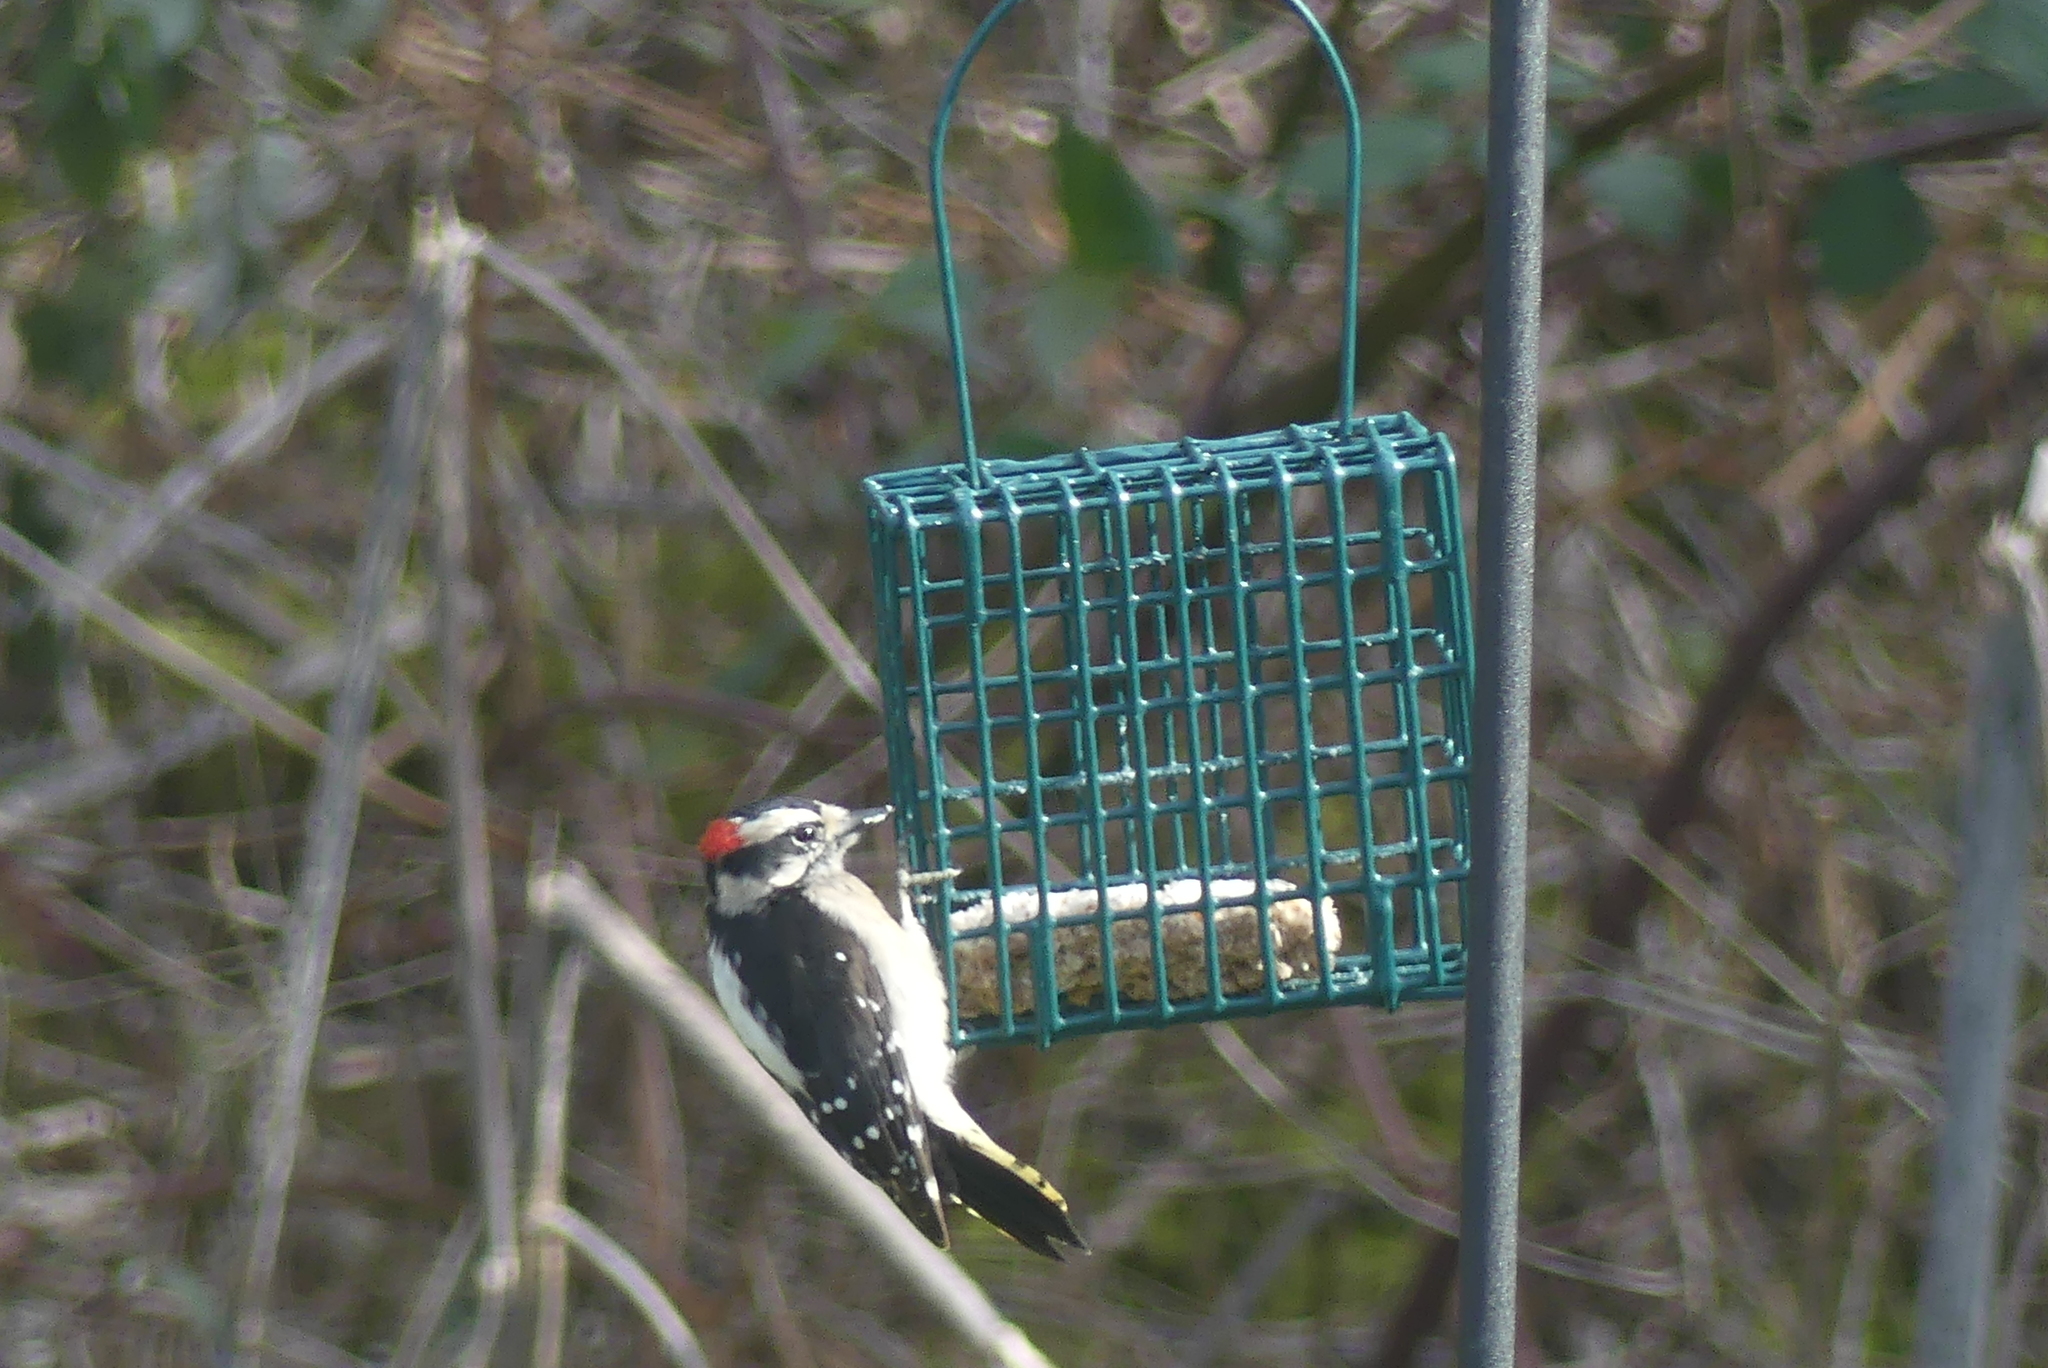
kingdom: Animalia
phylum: Chordata
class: Aves
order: Piciformes
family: Picidae
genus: Dryobates
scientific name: Dryobates pubescens
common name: Downy woodpecker
